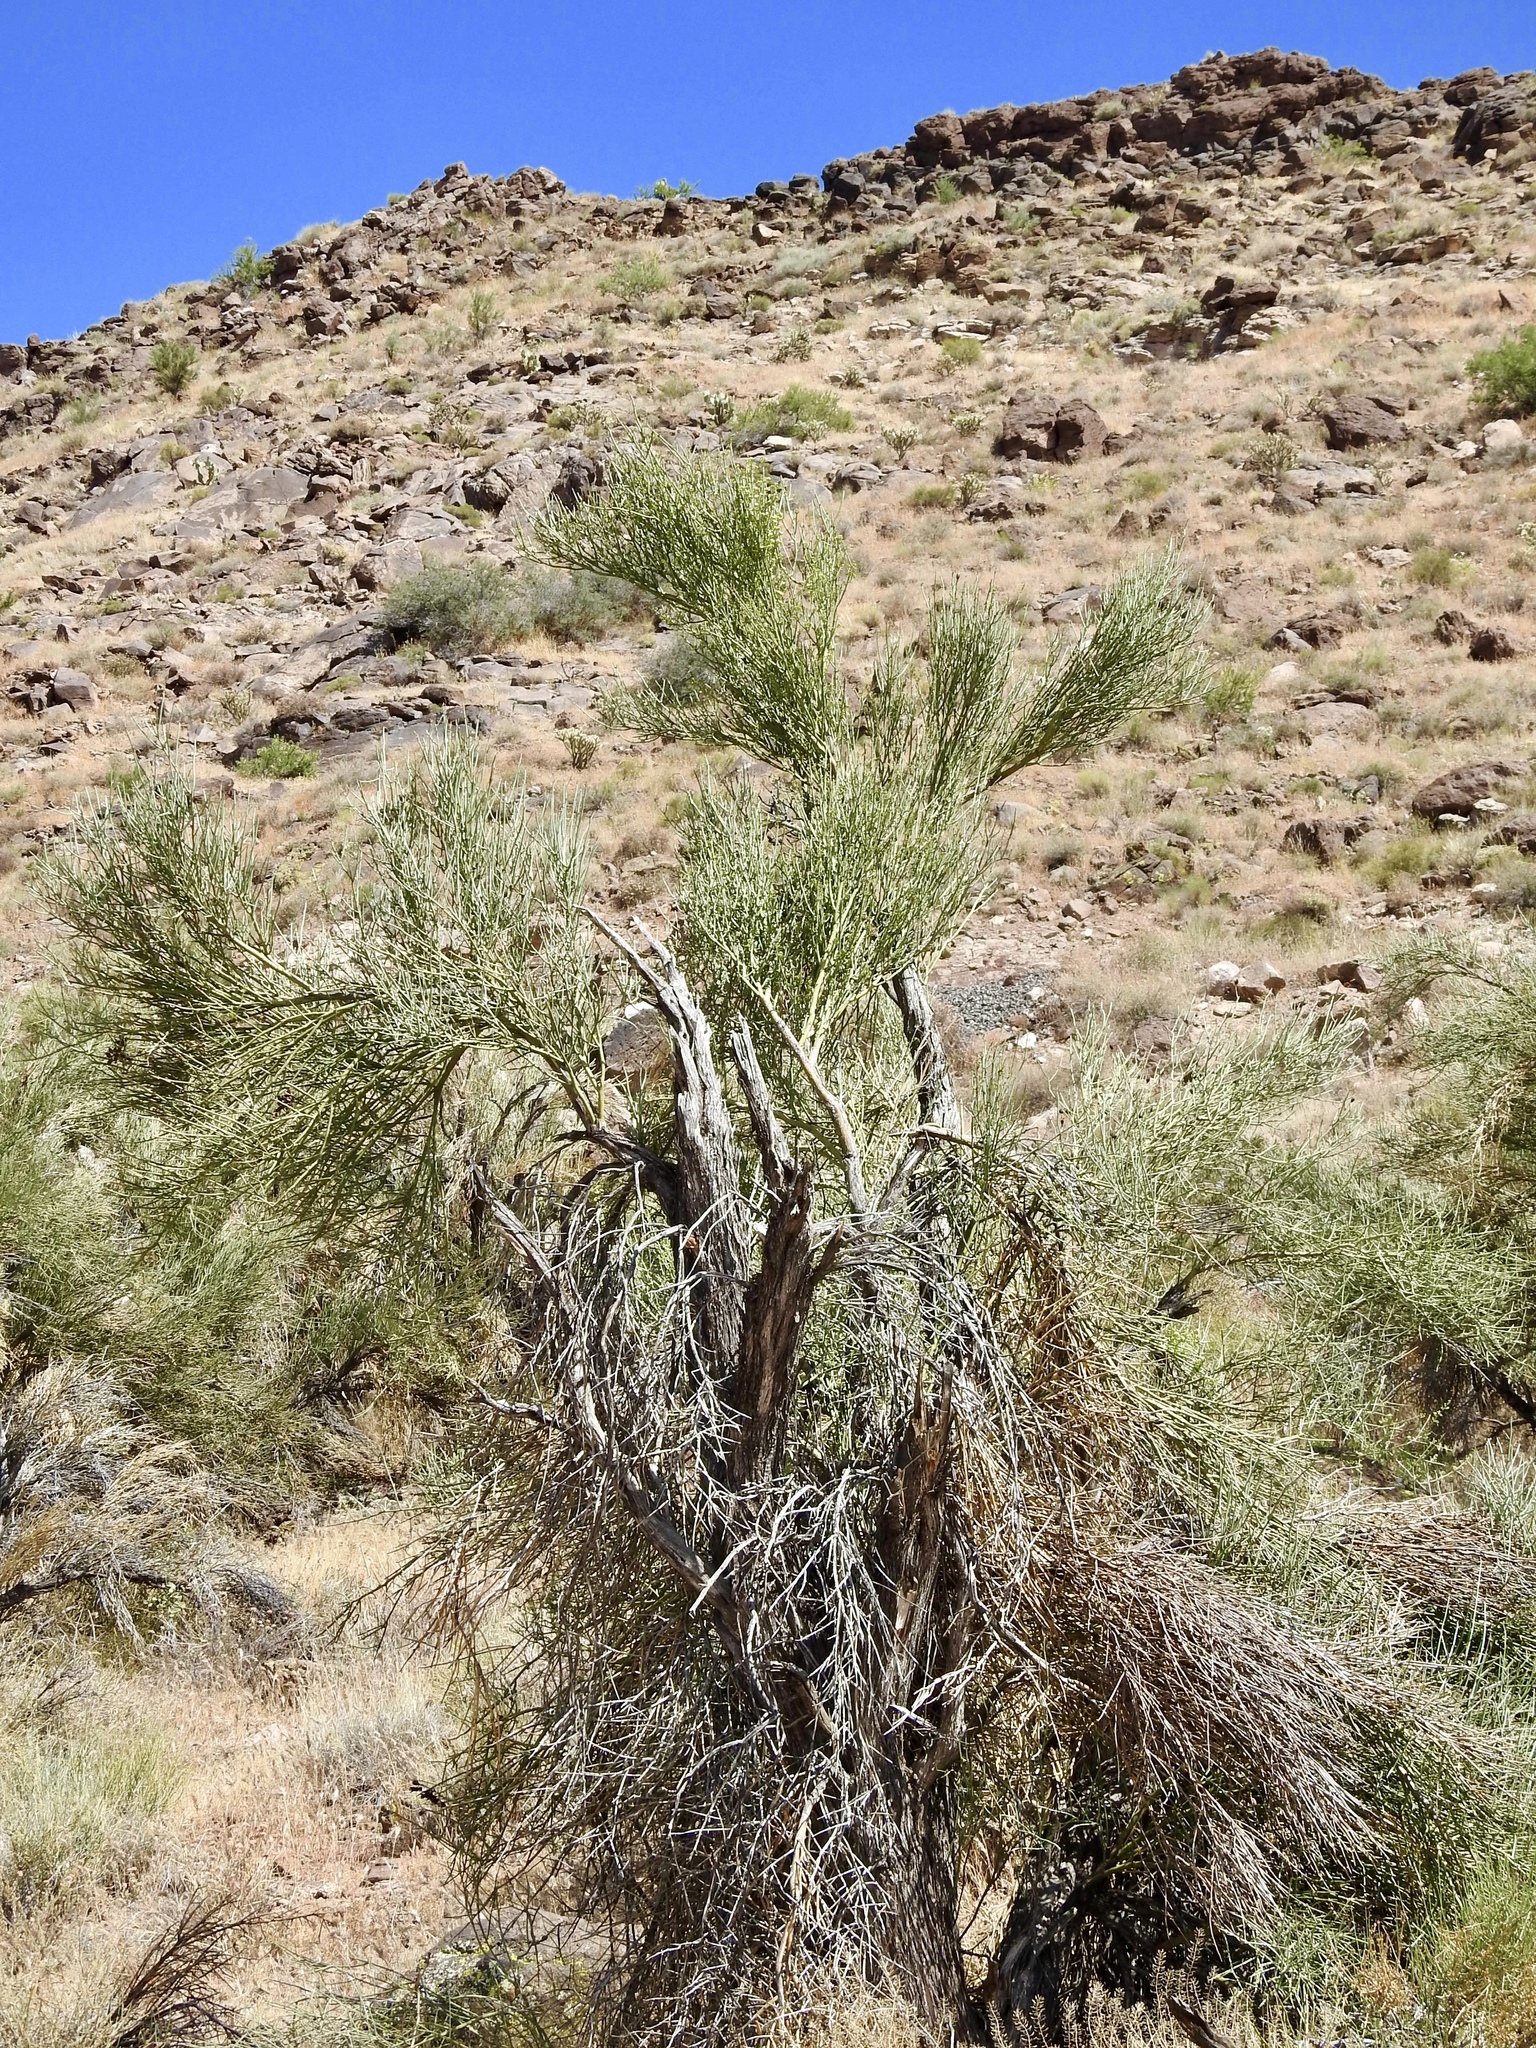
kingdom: Plantae
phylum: Tracheophyta
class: Magnoliopsida
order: Celastrales
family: Celastraceae
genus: Canotia
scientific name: Canotia holacantha
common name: Crucifixion thorns
